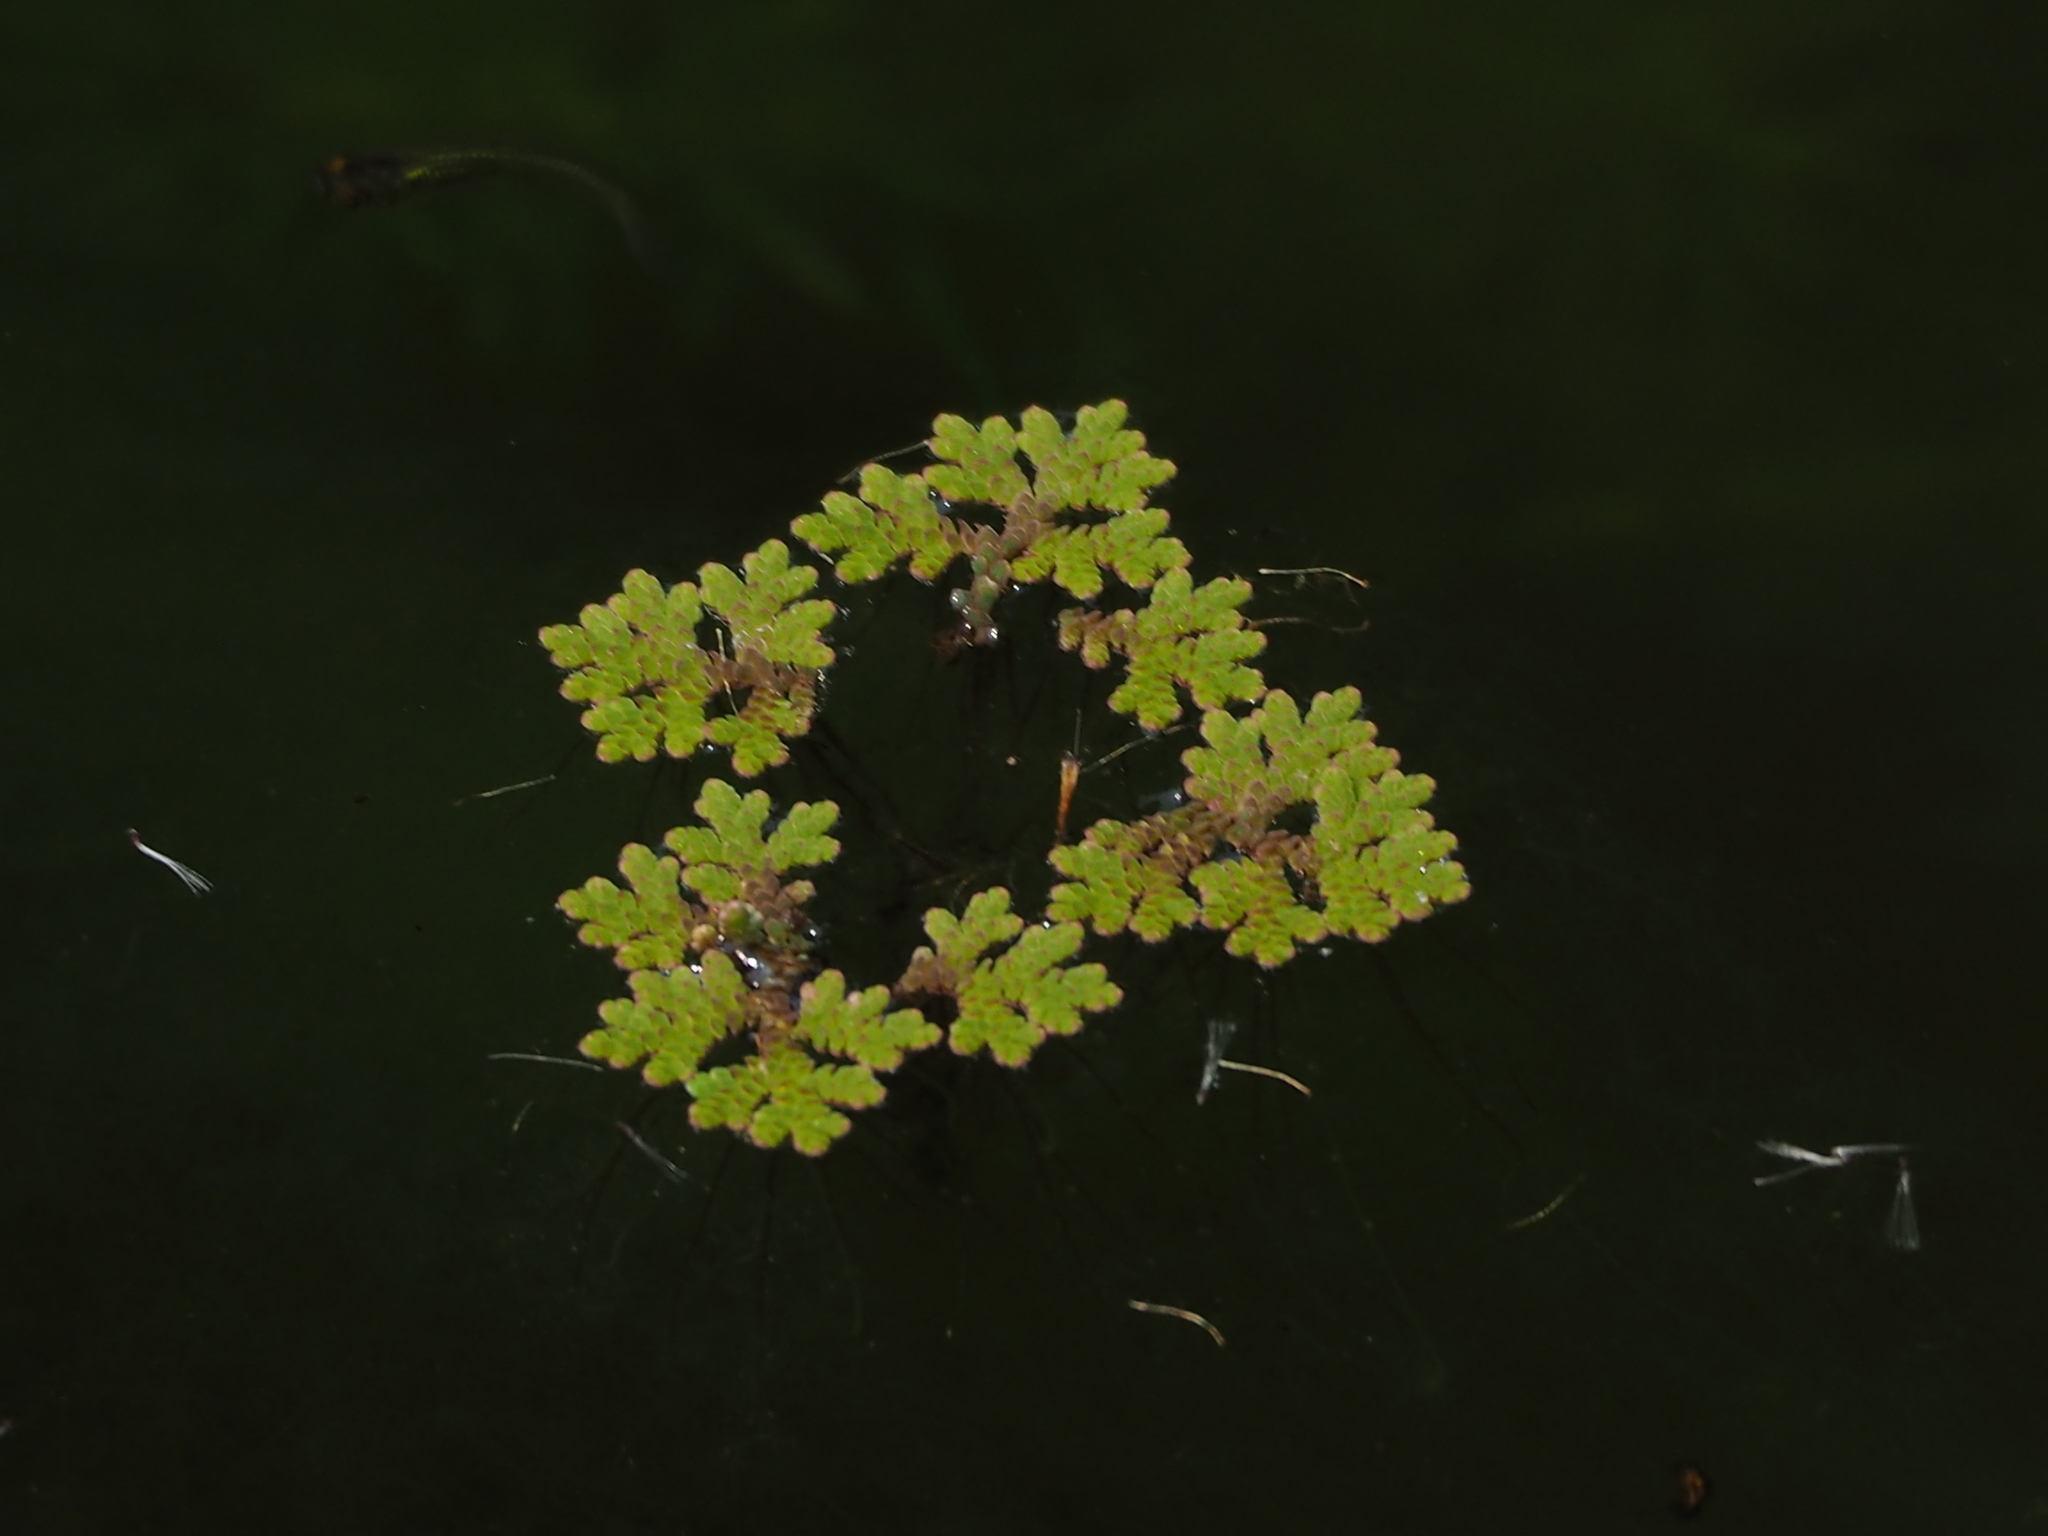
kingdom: Plantae
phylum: Tracheophyta
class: Polypodiopsida
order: Salviniales
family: Salviniaceae
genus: Azolla
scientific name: Azolla caroliniana
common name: Carolina mosquitofern
